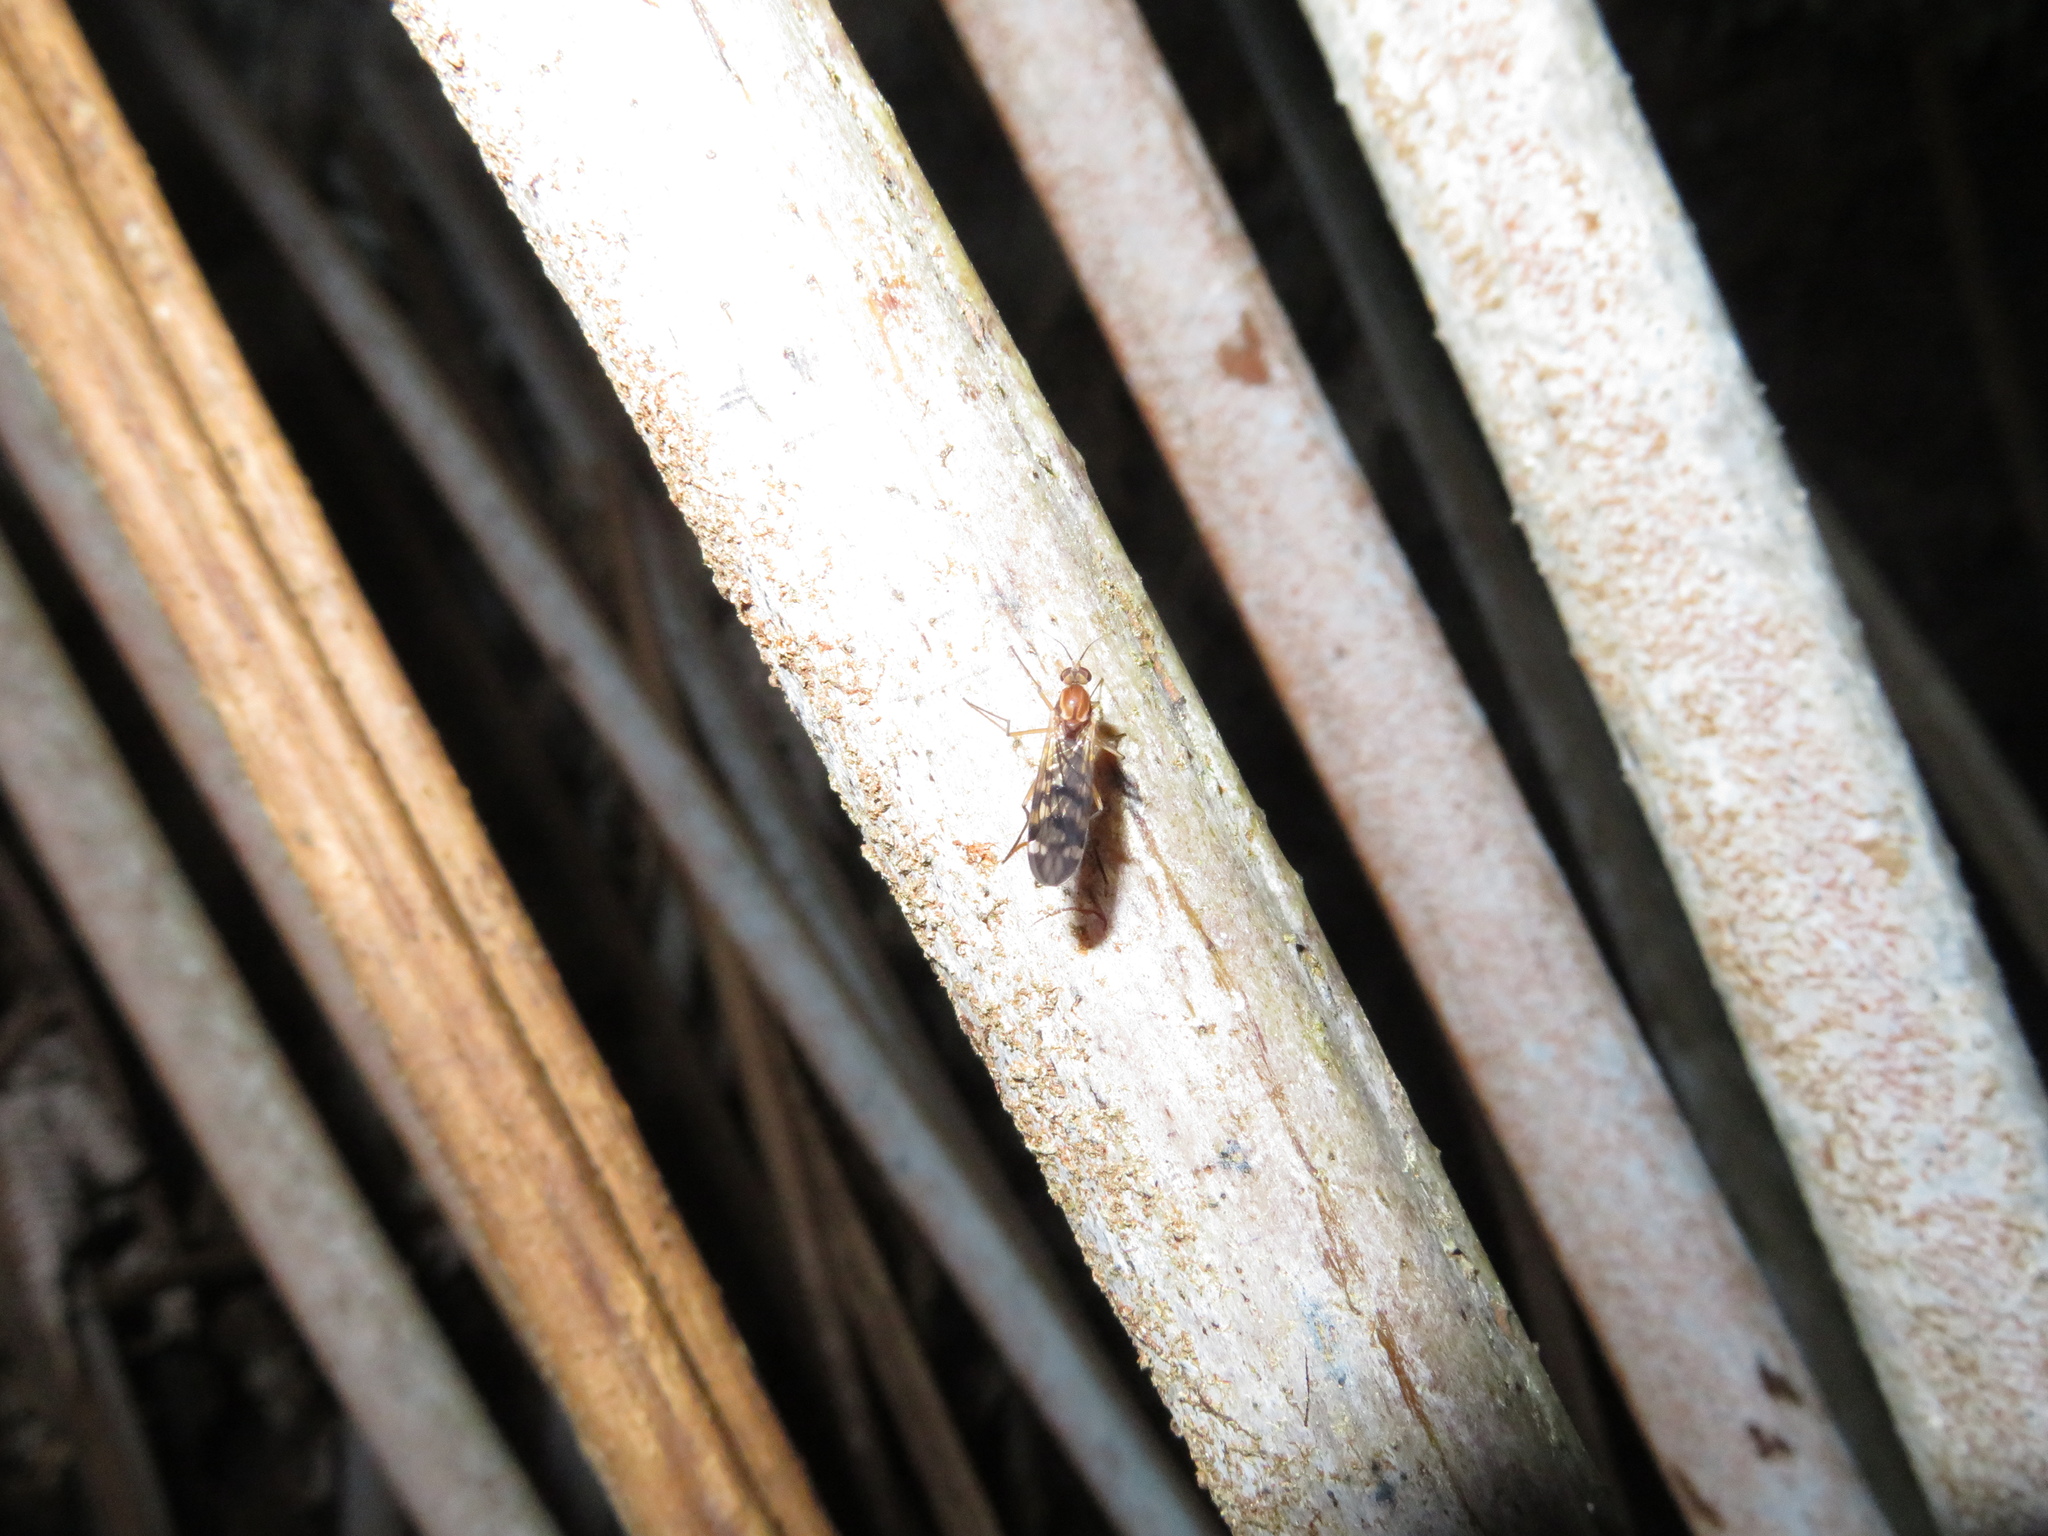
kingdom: Animalia
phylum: Arthropoda
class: Insecta
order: Diptera
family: Anisopodidae
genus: Sylvicola
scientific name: Sylvicola notatus
